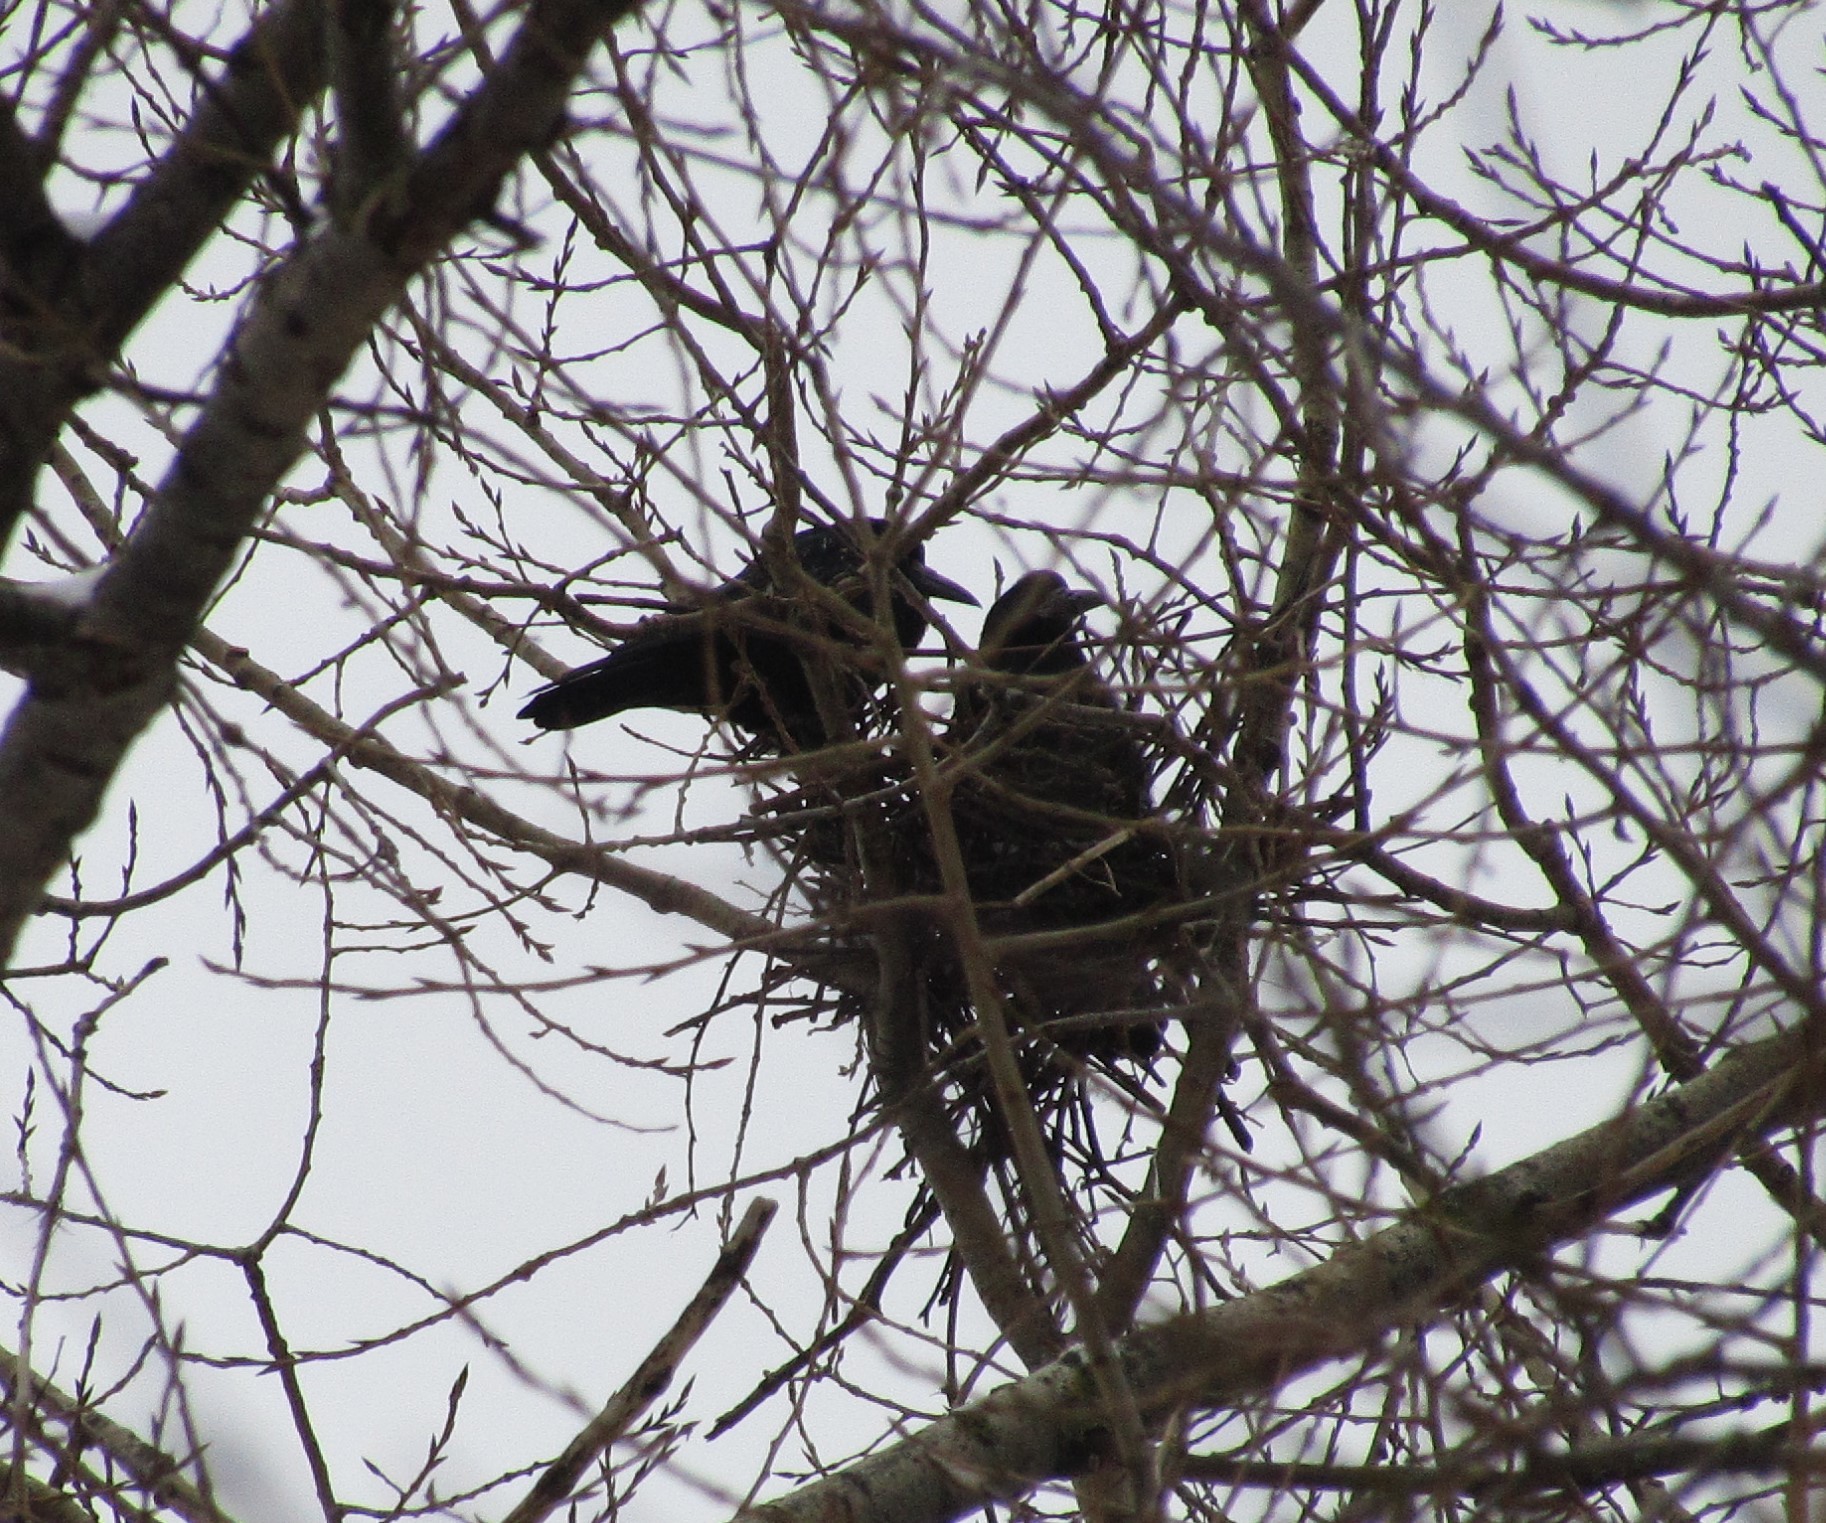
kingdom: Animalia
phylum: Chordata
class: Aves
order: Passeriformes
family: Corvidae
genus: Corvus
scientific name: Corvus frugilegus
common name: Rook
